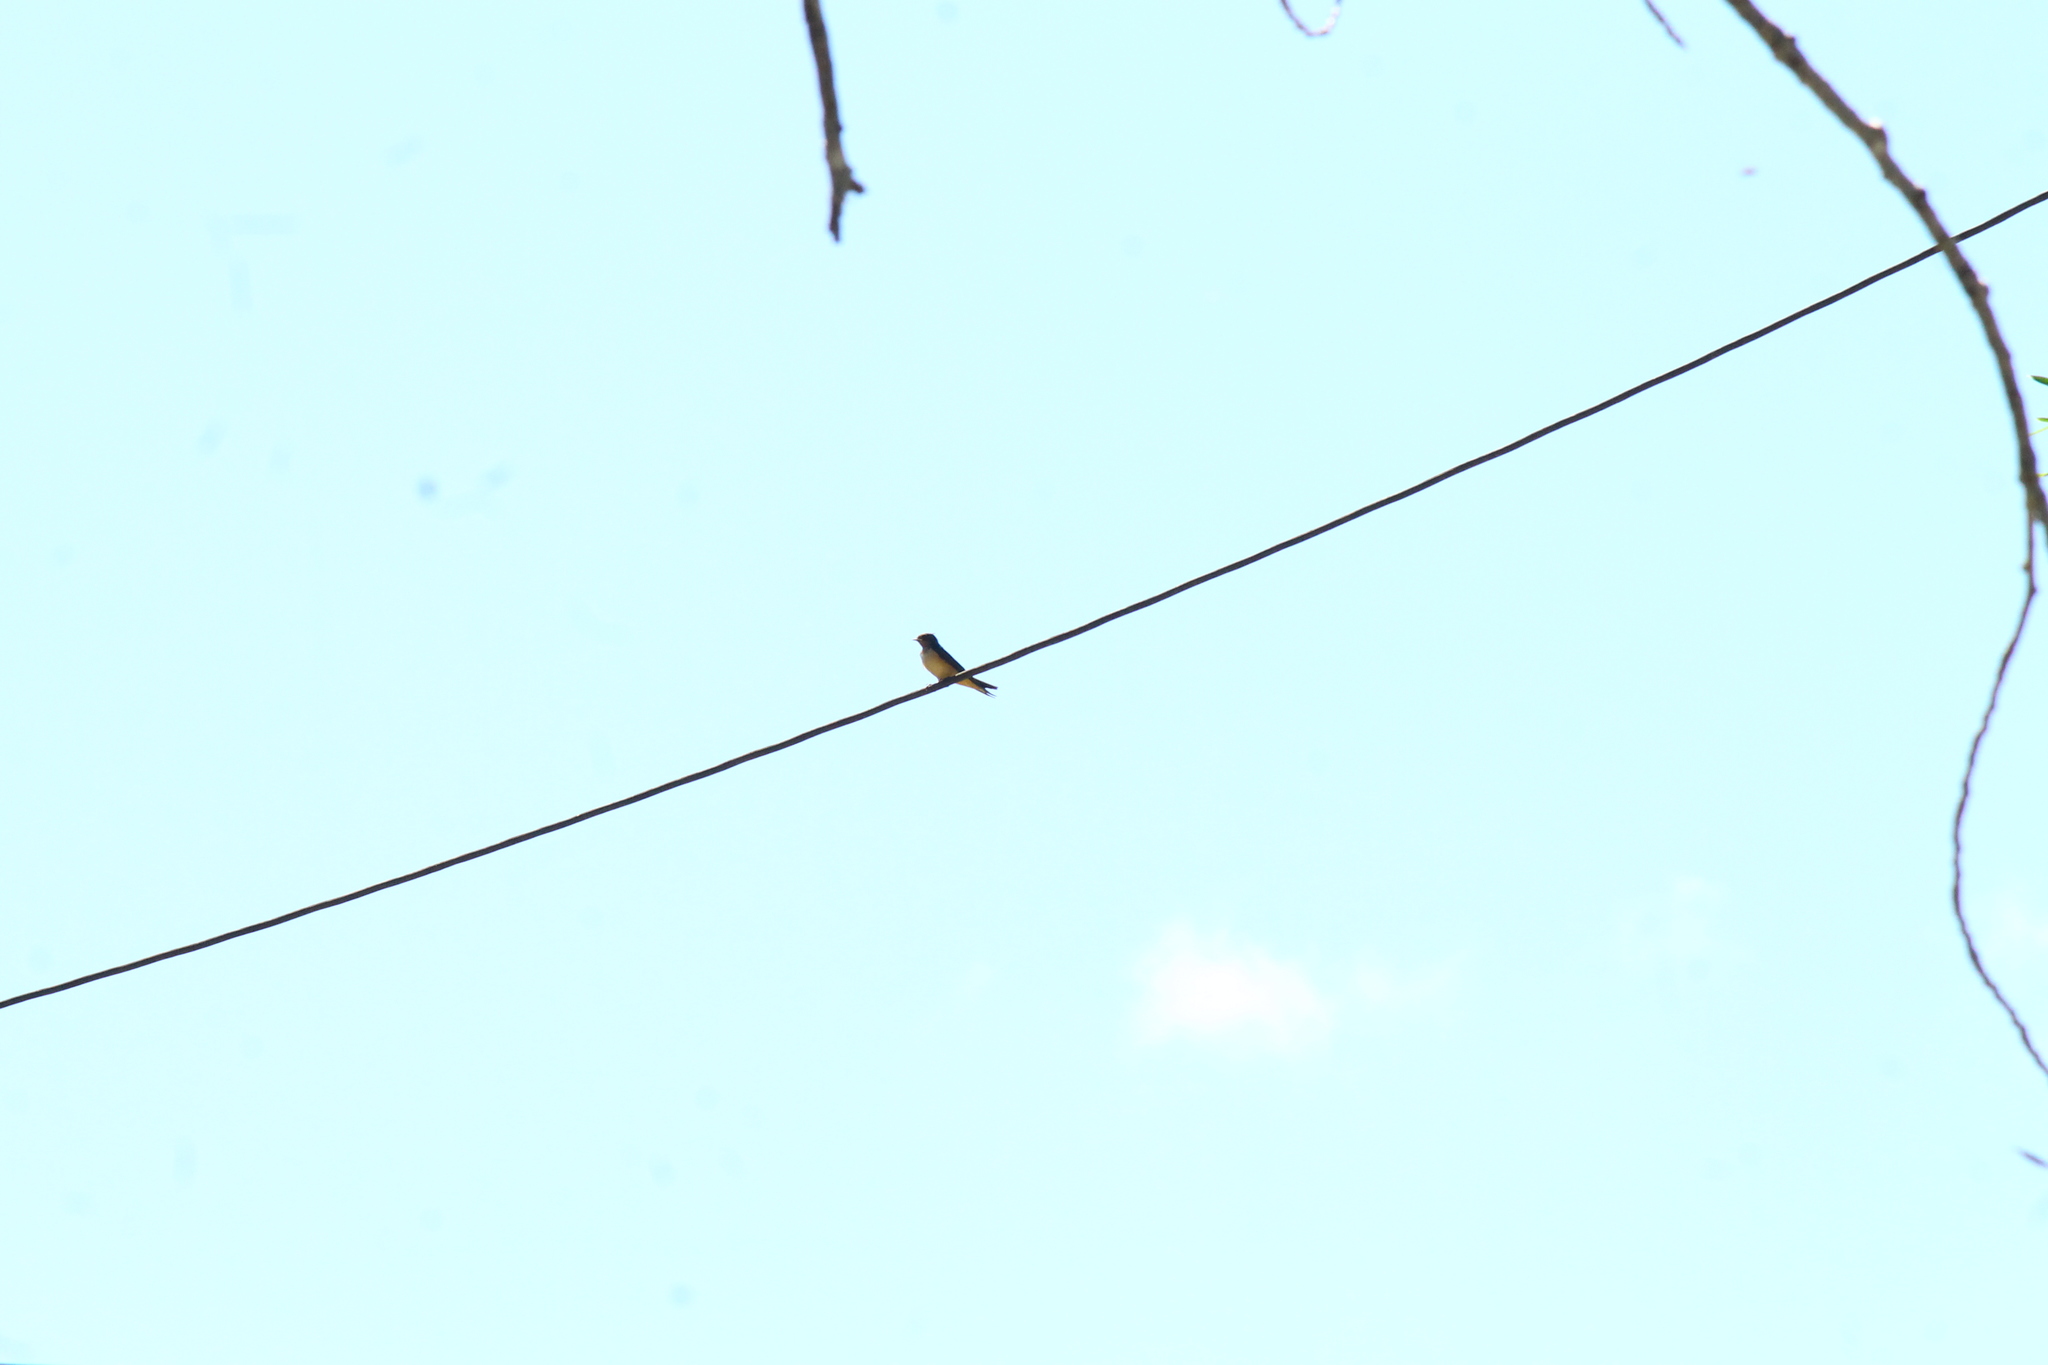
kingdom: Animalia
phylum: Chordata
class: Aves
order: Passeriformes
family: Hirundinidae
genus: Hirundo
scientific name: Hirundo rustica
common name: Barn swallow
